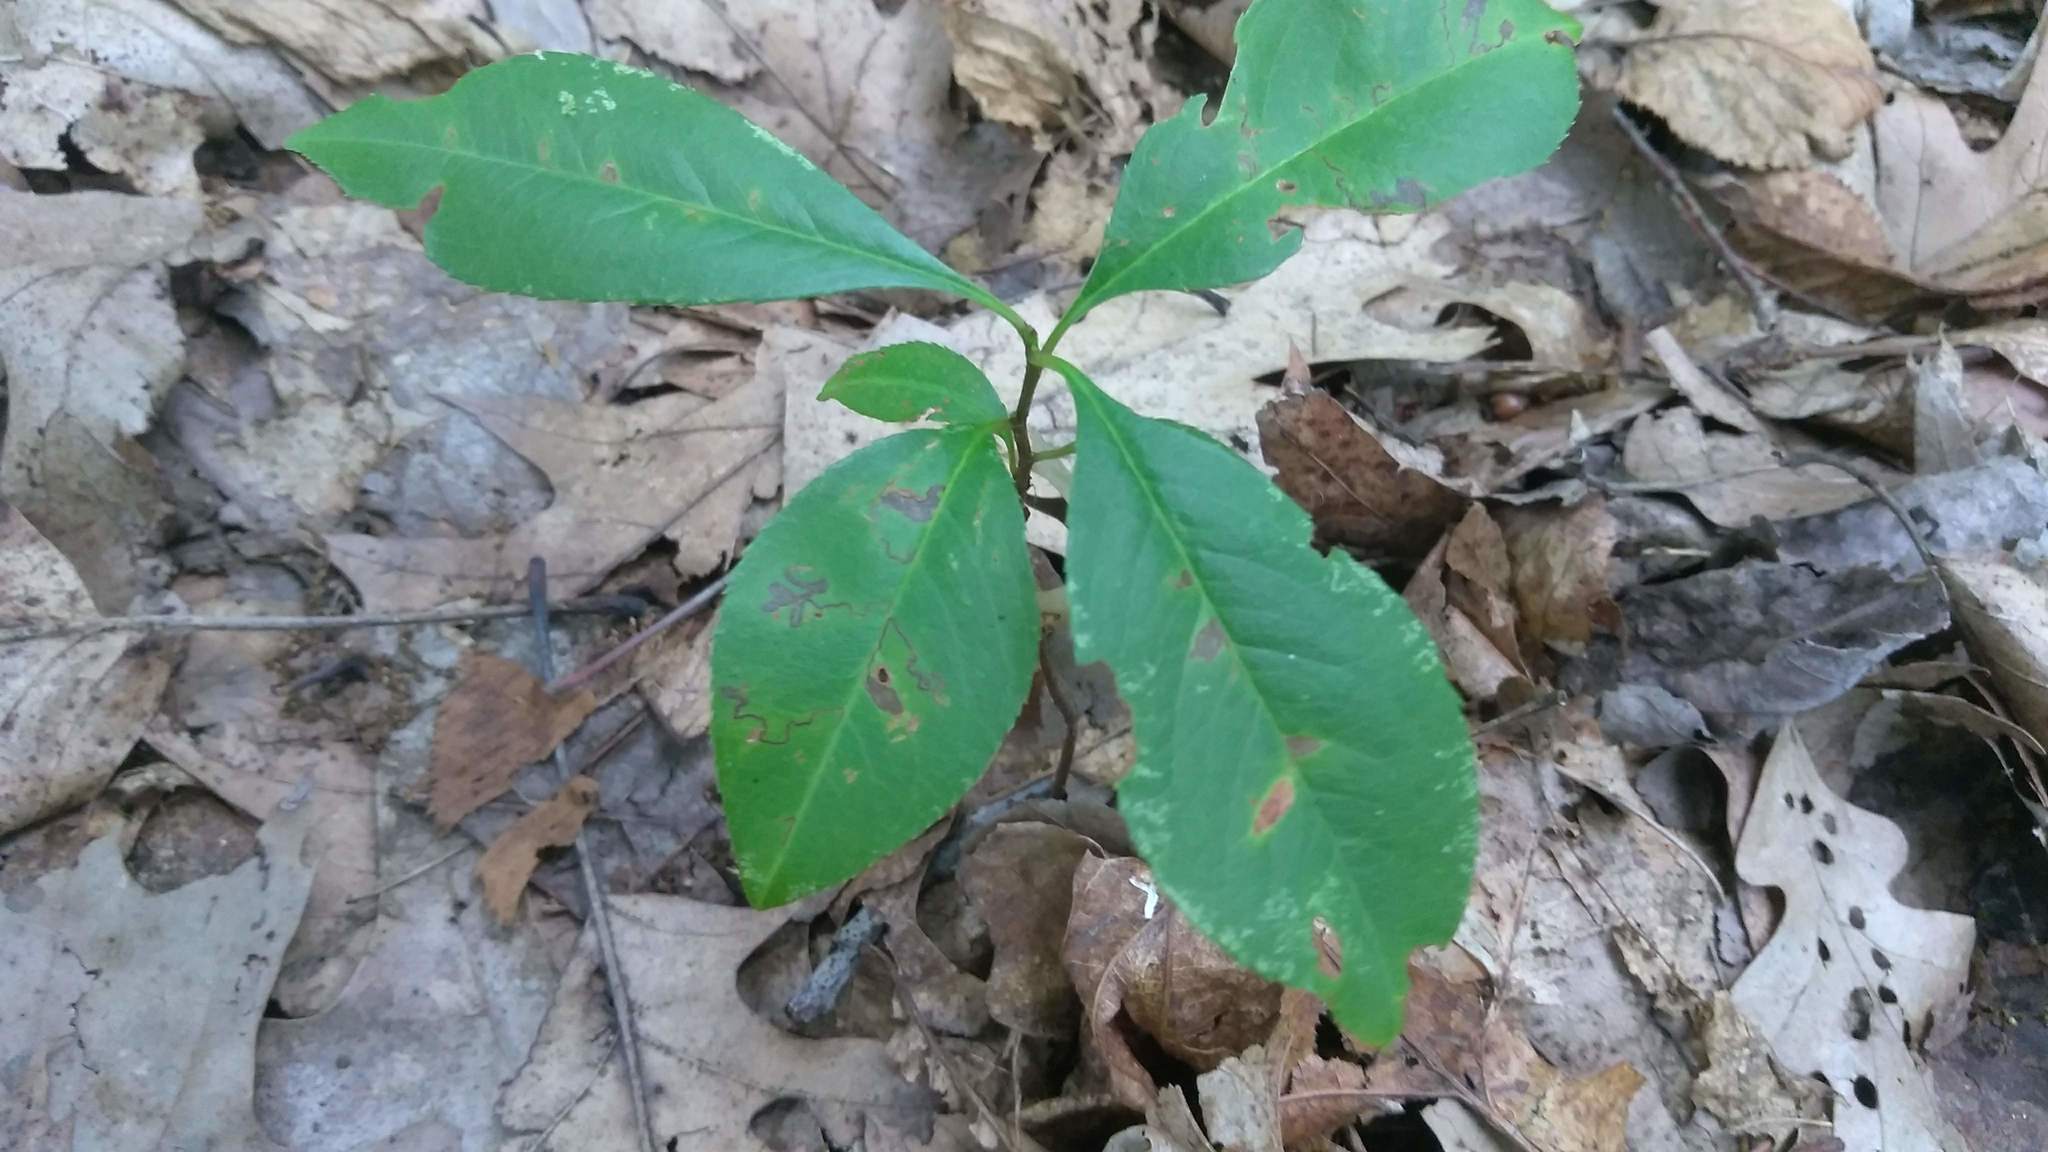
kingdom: Animalia
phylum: Arthropoda
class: Insecta
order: Lepidoptera
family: Nepticulidae
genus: Stigmella
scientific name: Stigmella prunifoliella
